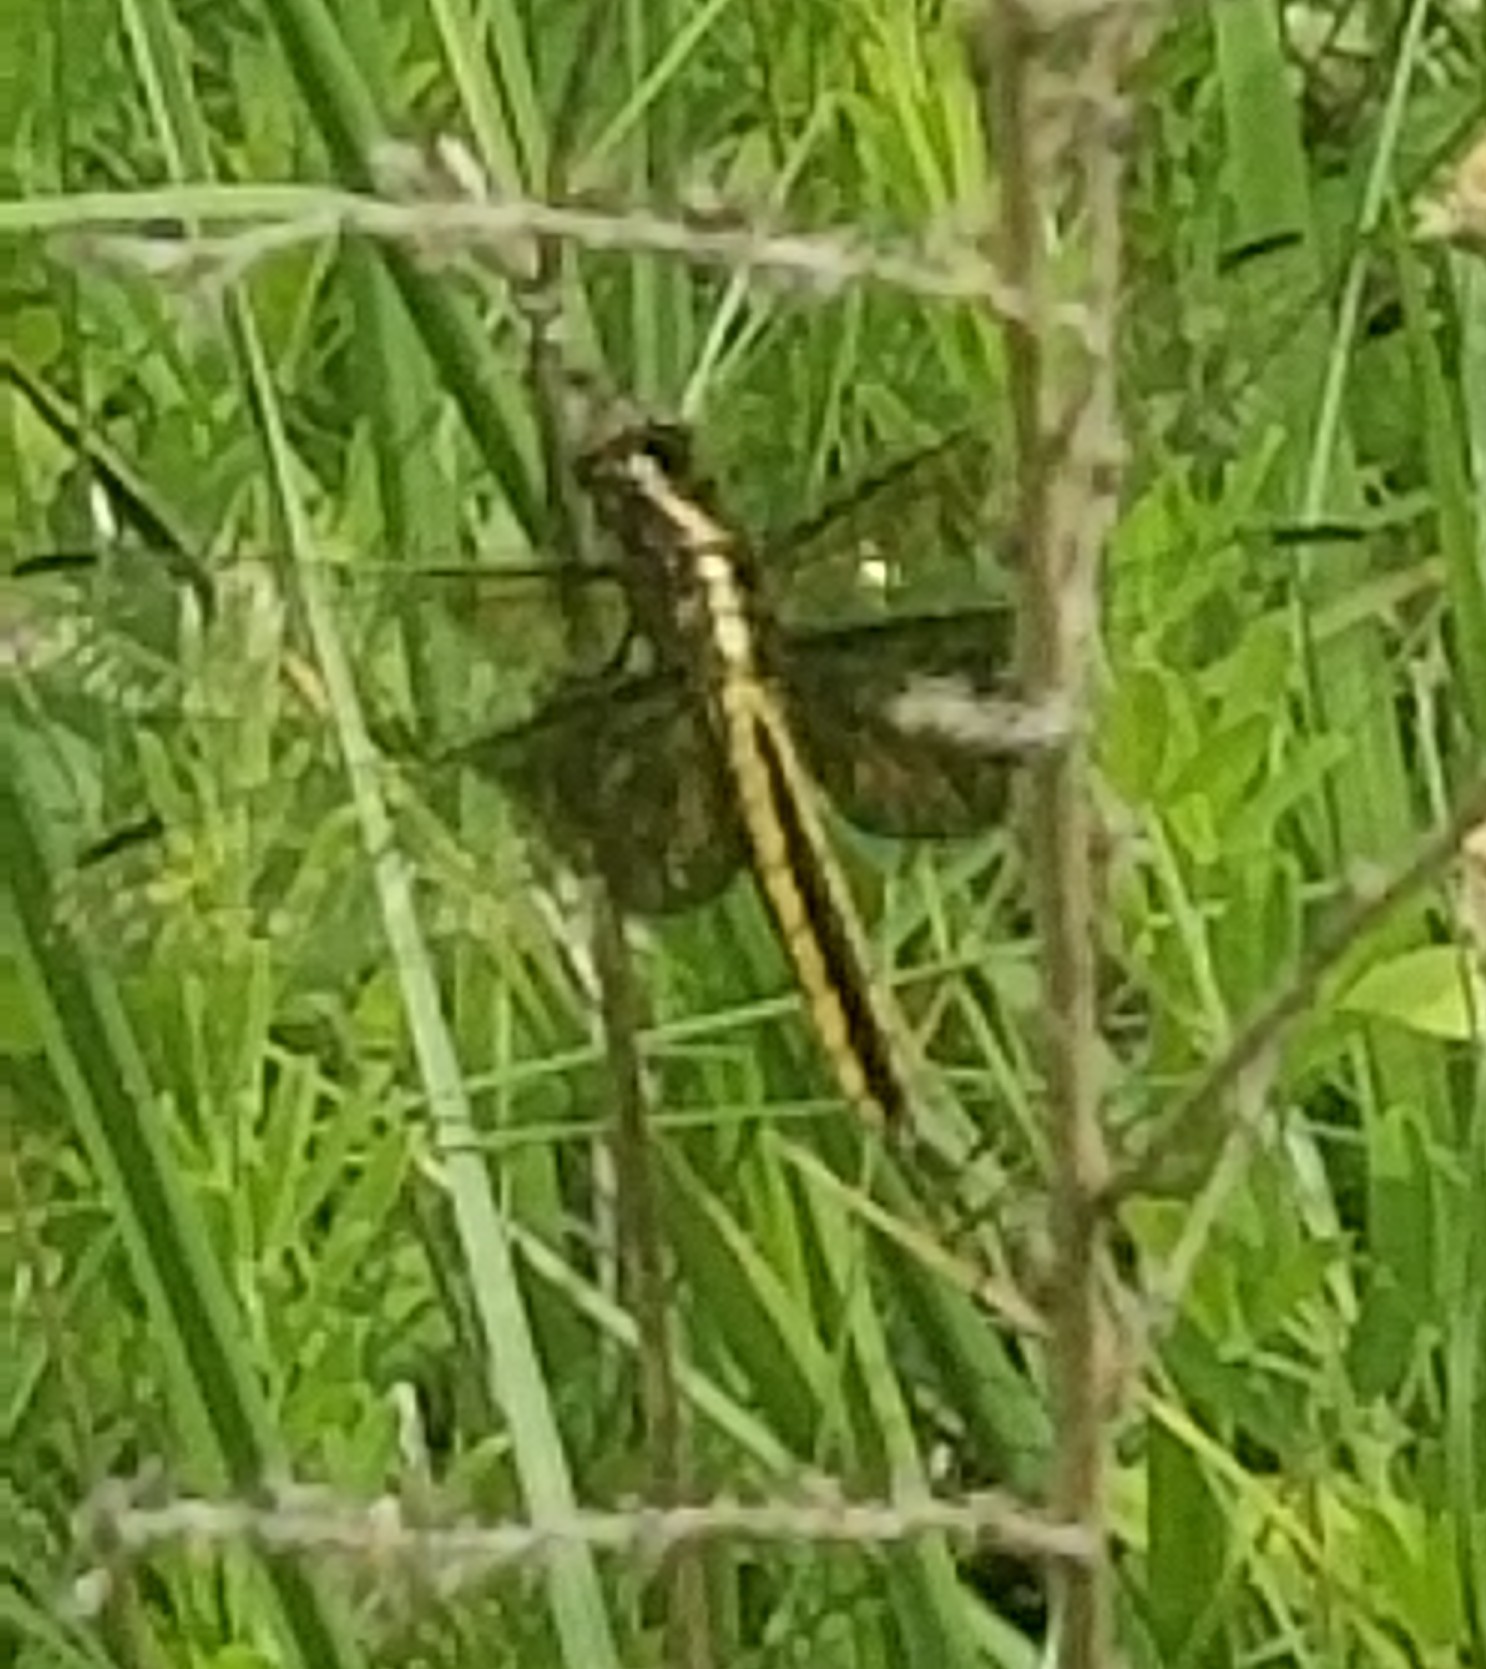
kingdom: Animalia
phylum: Arthropoda
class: Insecta
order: Odonata
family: Libellulidae
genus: Libellula
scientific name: Libellula luctuosa
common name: Widow skimmer
